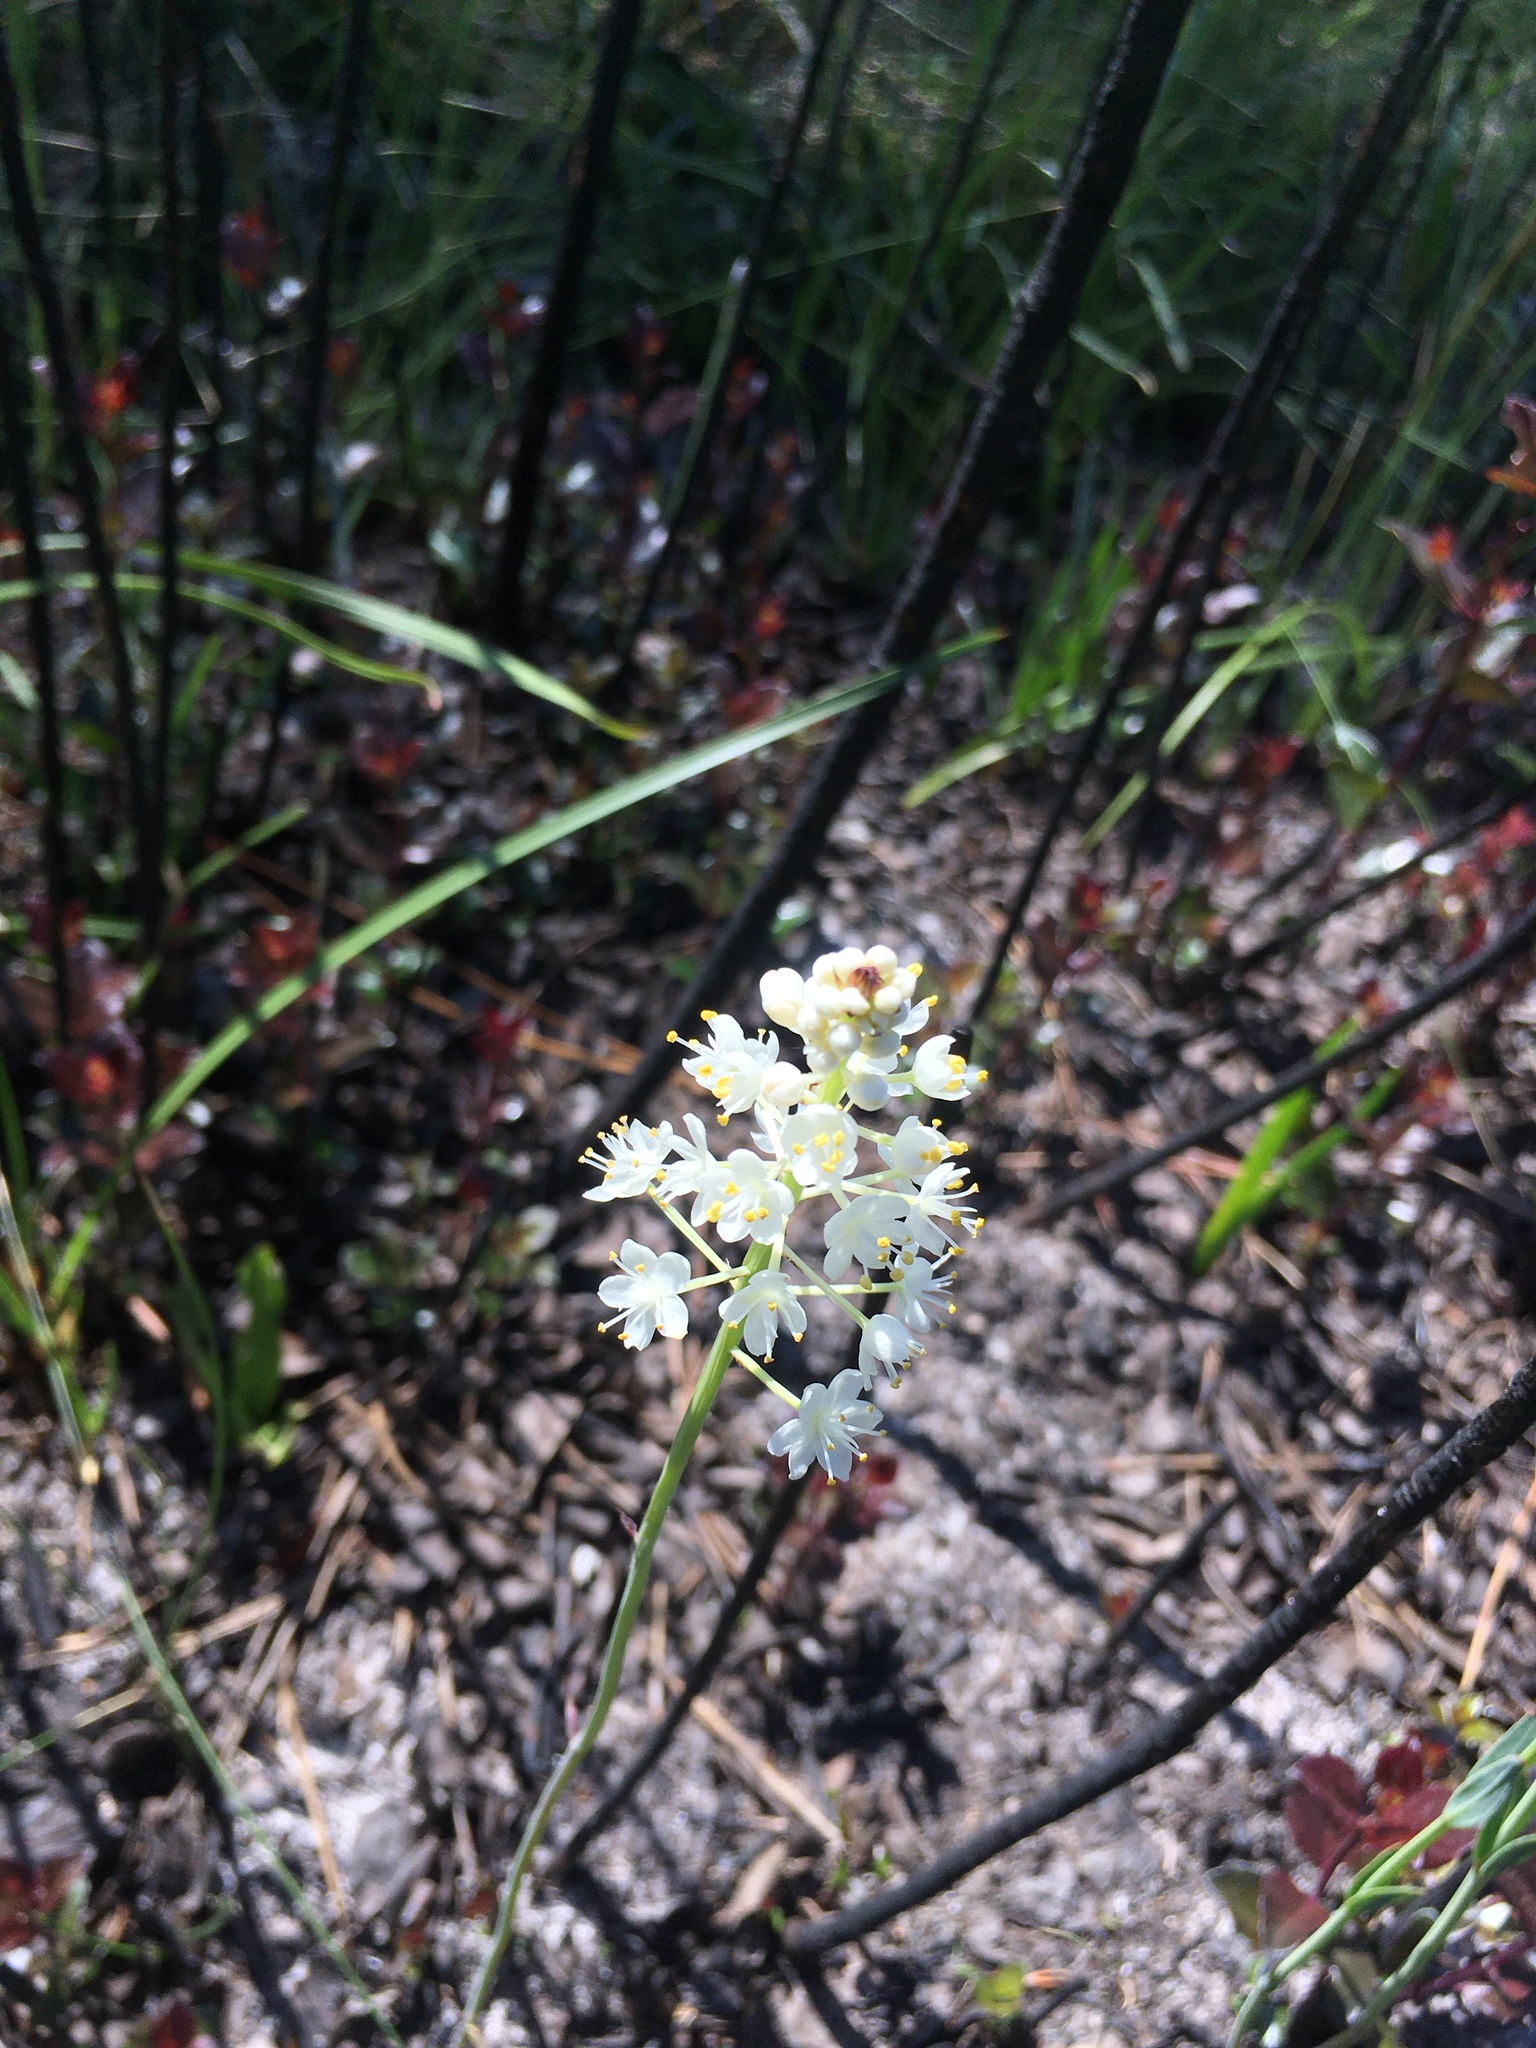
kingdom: Plantae
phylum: Tracheophyta
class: Liliopsida
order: Liliales
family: Melanthiaceae
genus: Stenanthium
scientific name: Stenanthium densum
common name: Crow-poison
